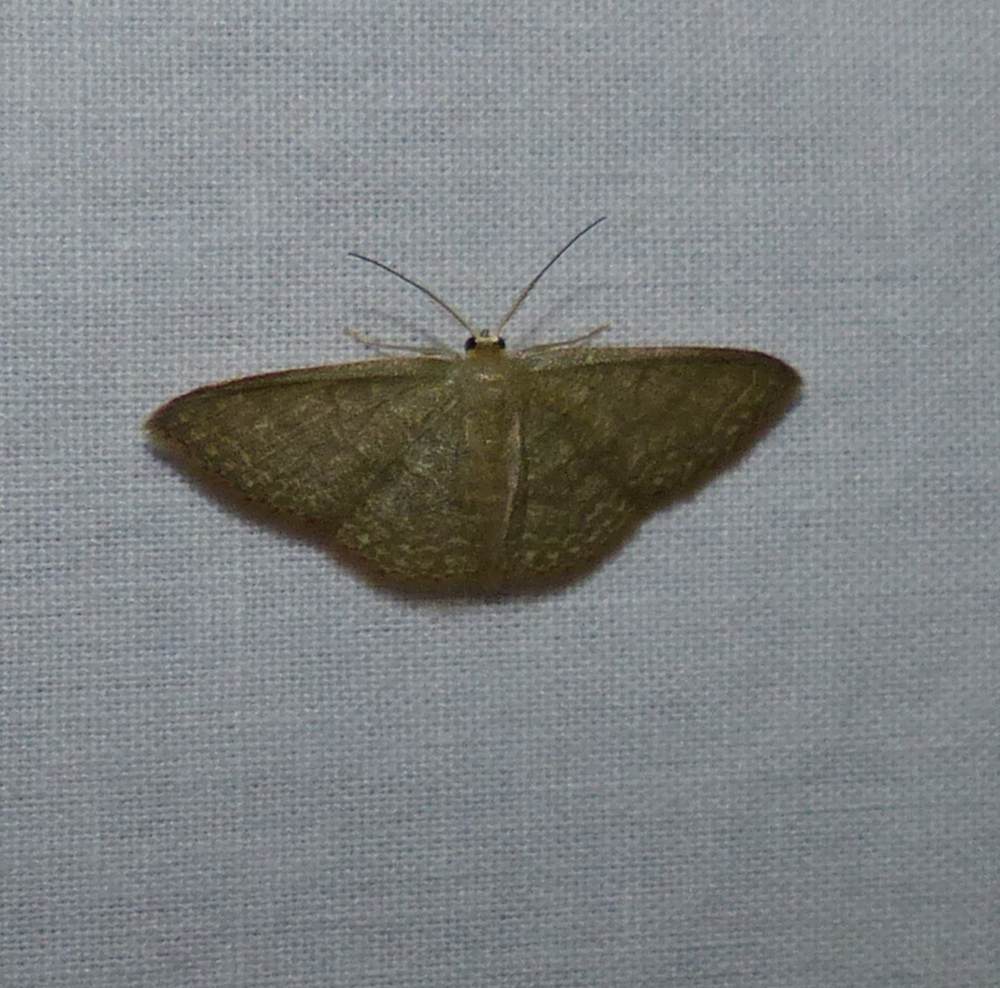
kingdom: Animalia
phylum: Arthropoda
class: Insecta
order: Lepidoptera
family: Geometridae
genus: Pleuroprucha
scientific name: Pleuroprucha insulsaria
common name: Common tan wave
